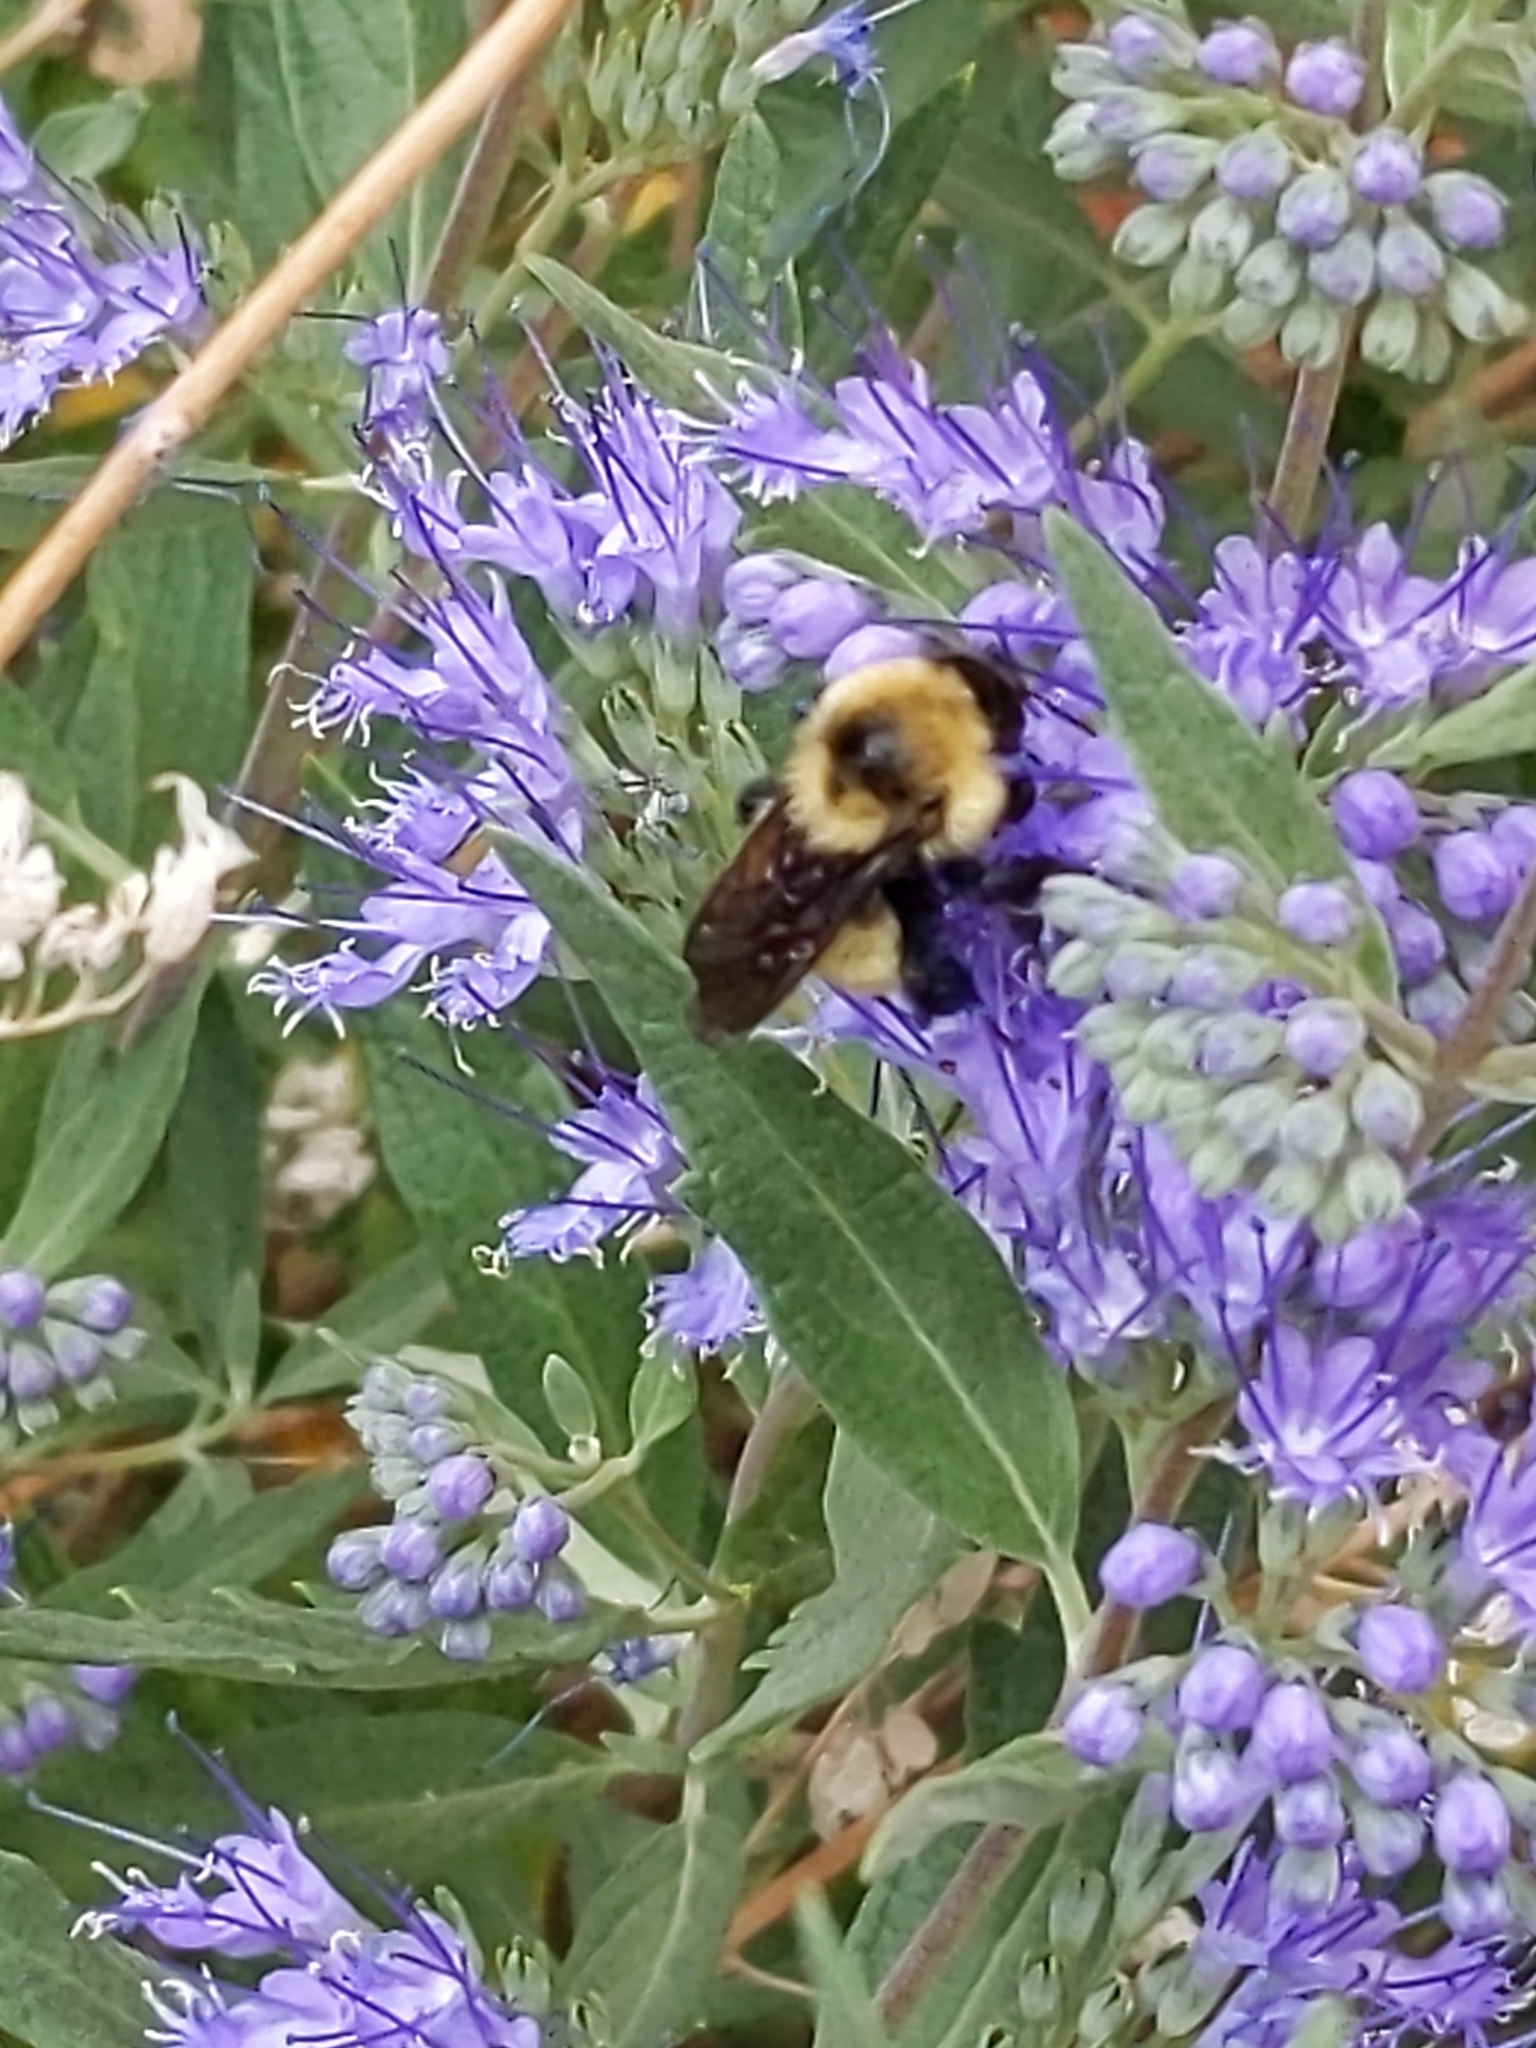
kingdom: Animalia
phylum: Arthropoda
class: Insecta
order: Hymenoptera
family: Apidae
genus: Bombus
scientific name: Bombus fervidus
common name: Yellow bumble bee
